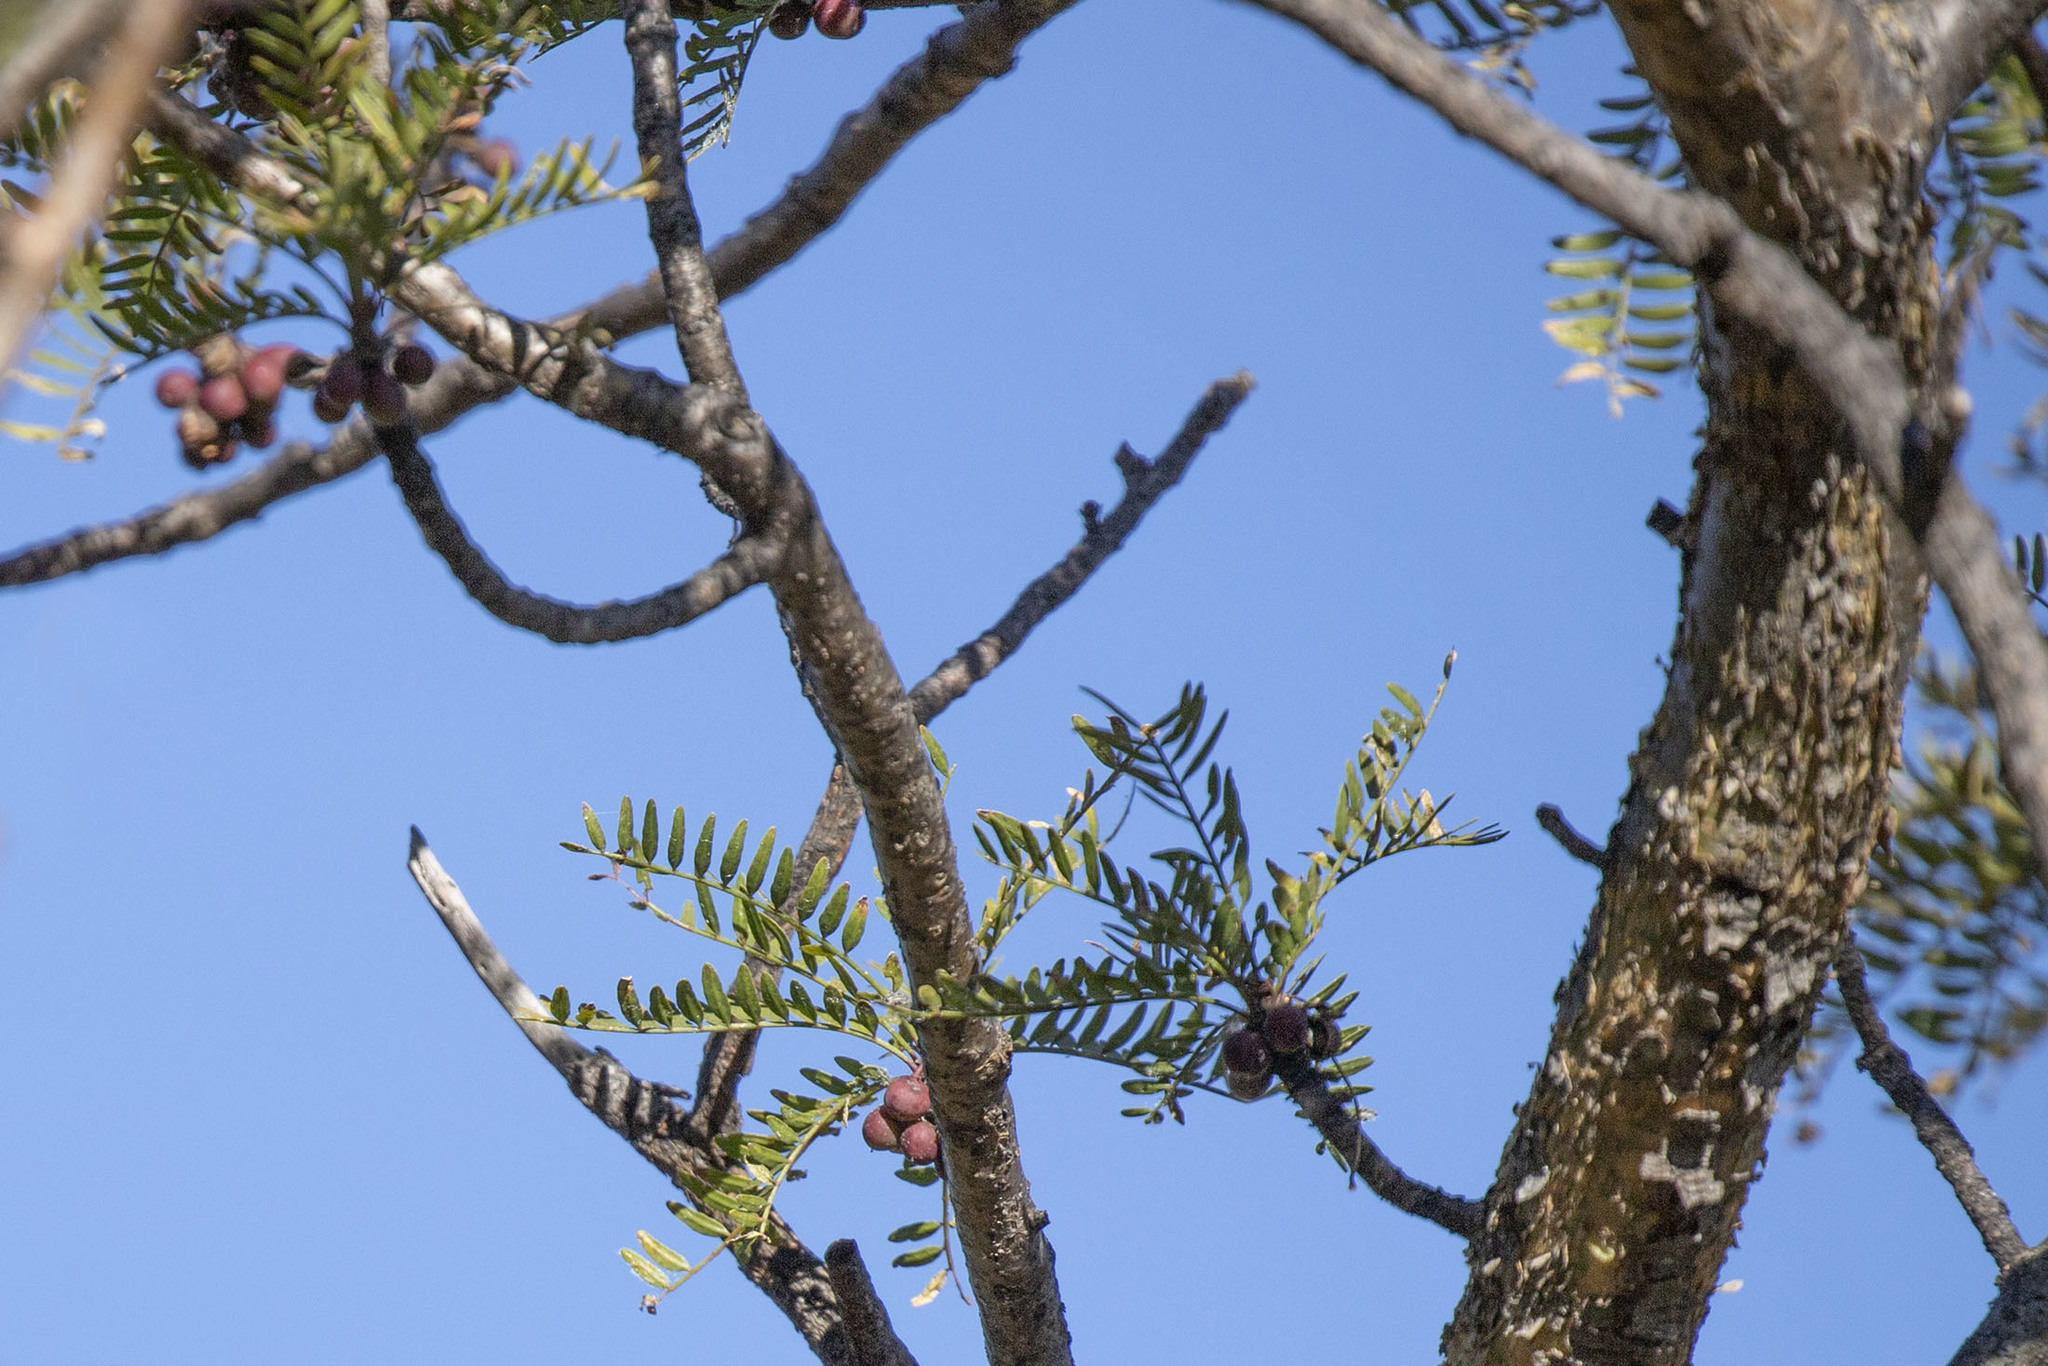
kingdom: Plantae
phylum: Tracheophyta
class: Magnoliopsida
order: Sapindales
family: Burseraceae
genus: Bursera
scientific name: Bursera microphylla
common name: Elephant tree
